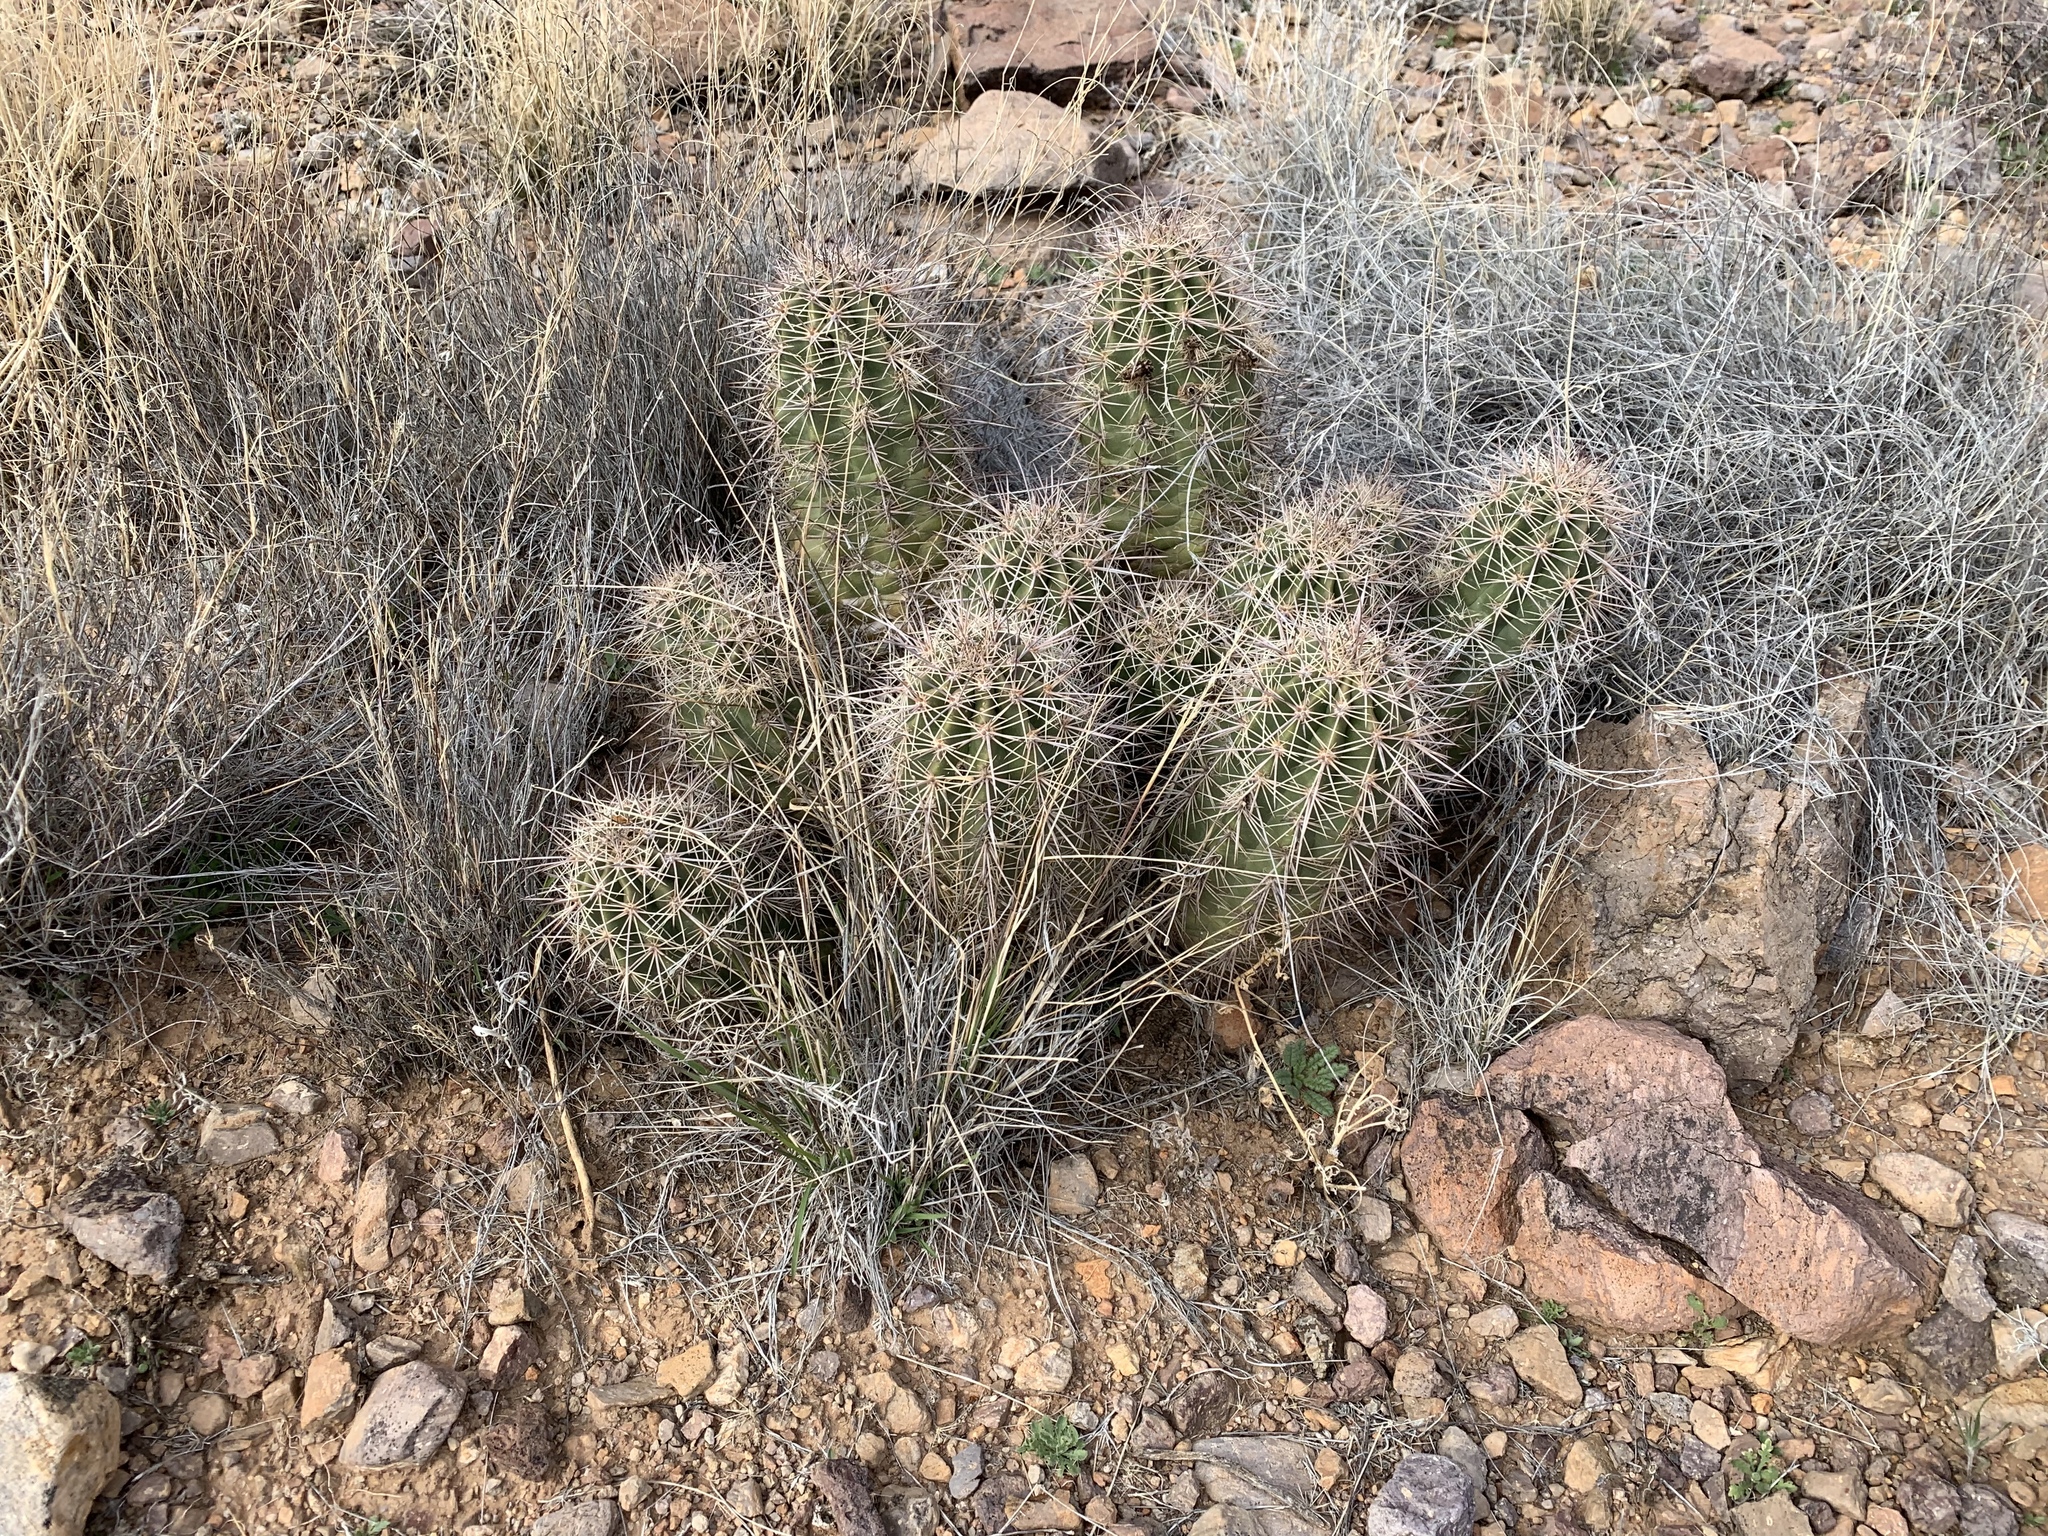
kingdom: Plantae
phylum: Tracheophyta
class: Magnoliopsida
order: Caryophyllales
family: Cactaceae
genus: Echinocereus
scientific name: Echinocereus coccineus
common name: Scarlet hedgehog cactus
